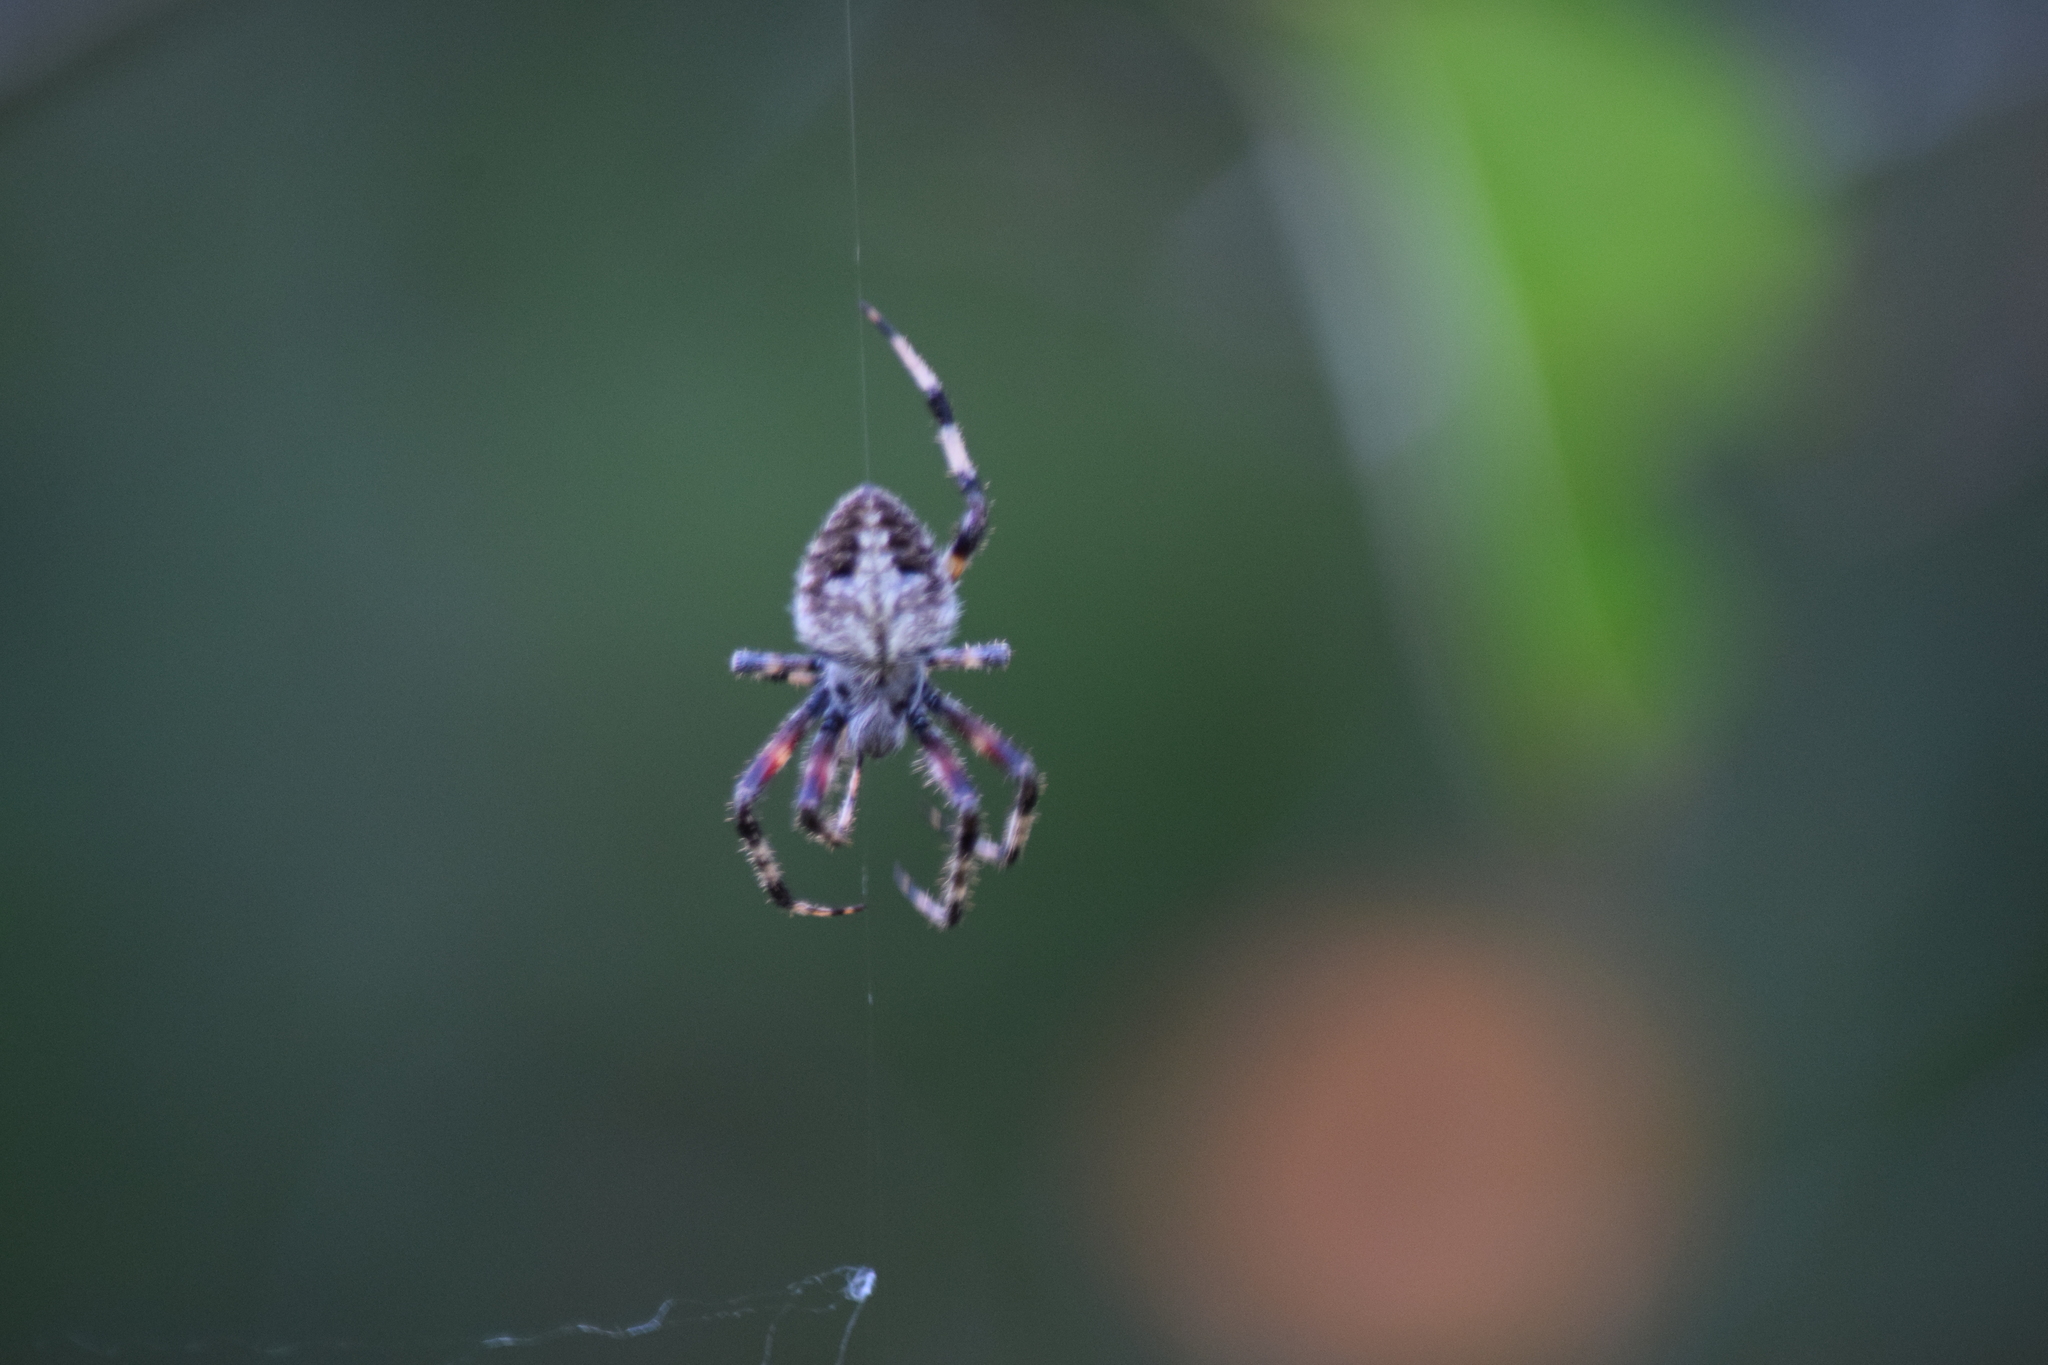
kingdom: Animalia
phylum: Arthropoda
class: Arachnida
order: Araneae
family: Araneidae
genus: Neoscona
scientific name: Neoscona domiciliorum
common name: Red-femured spotted orbweaver
